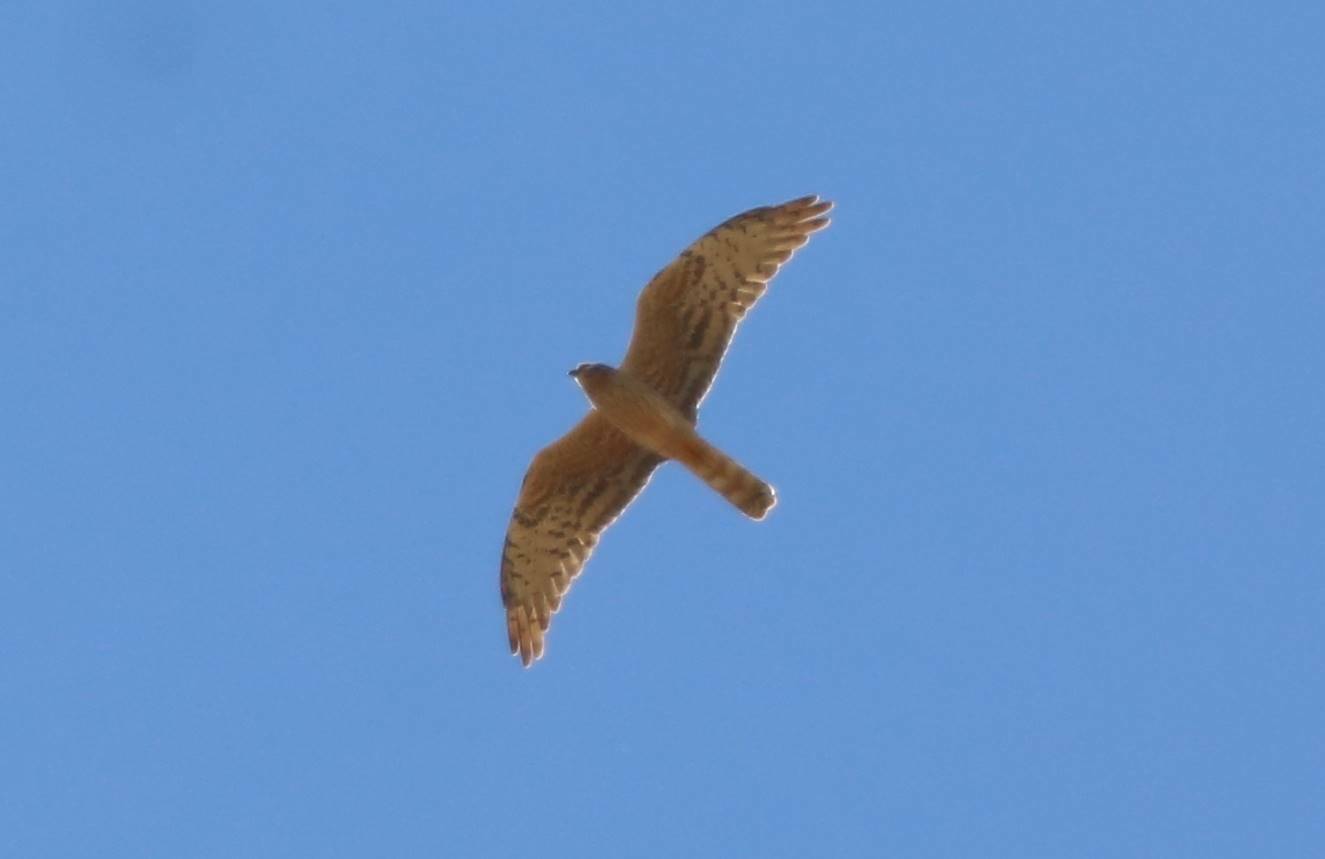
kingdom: Animalia
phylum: Chordata
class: Aves
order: Accipitriformes
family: Accipitridae
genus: Circus
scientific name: Circus pygargus
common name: Montagu's harrier
